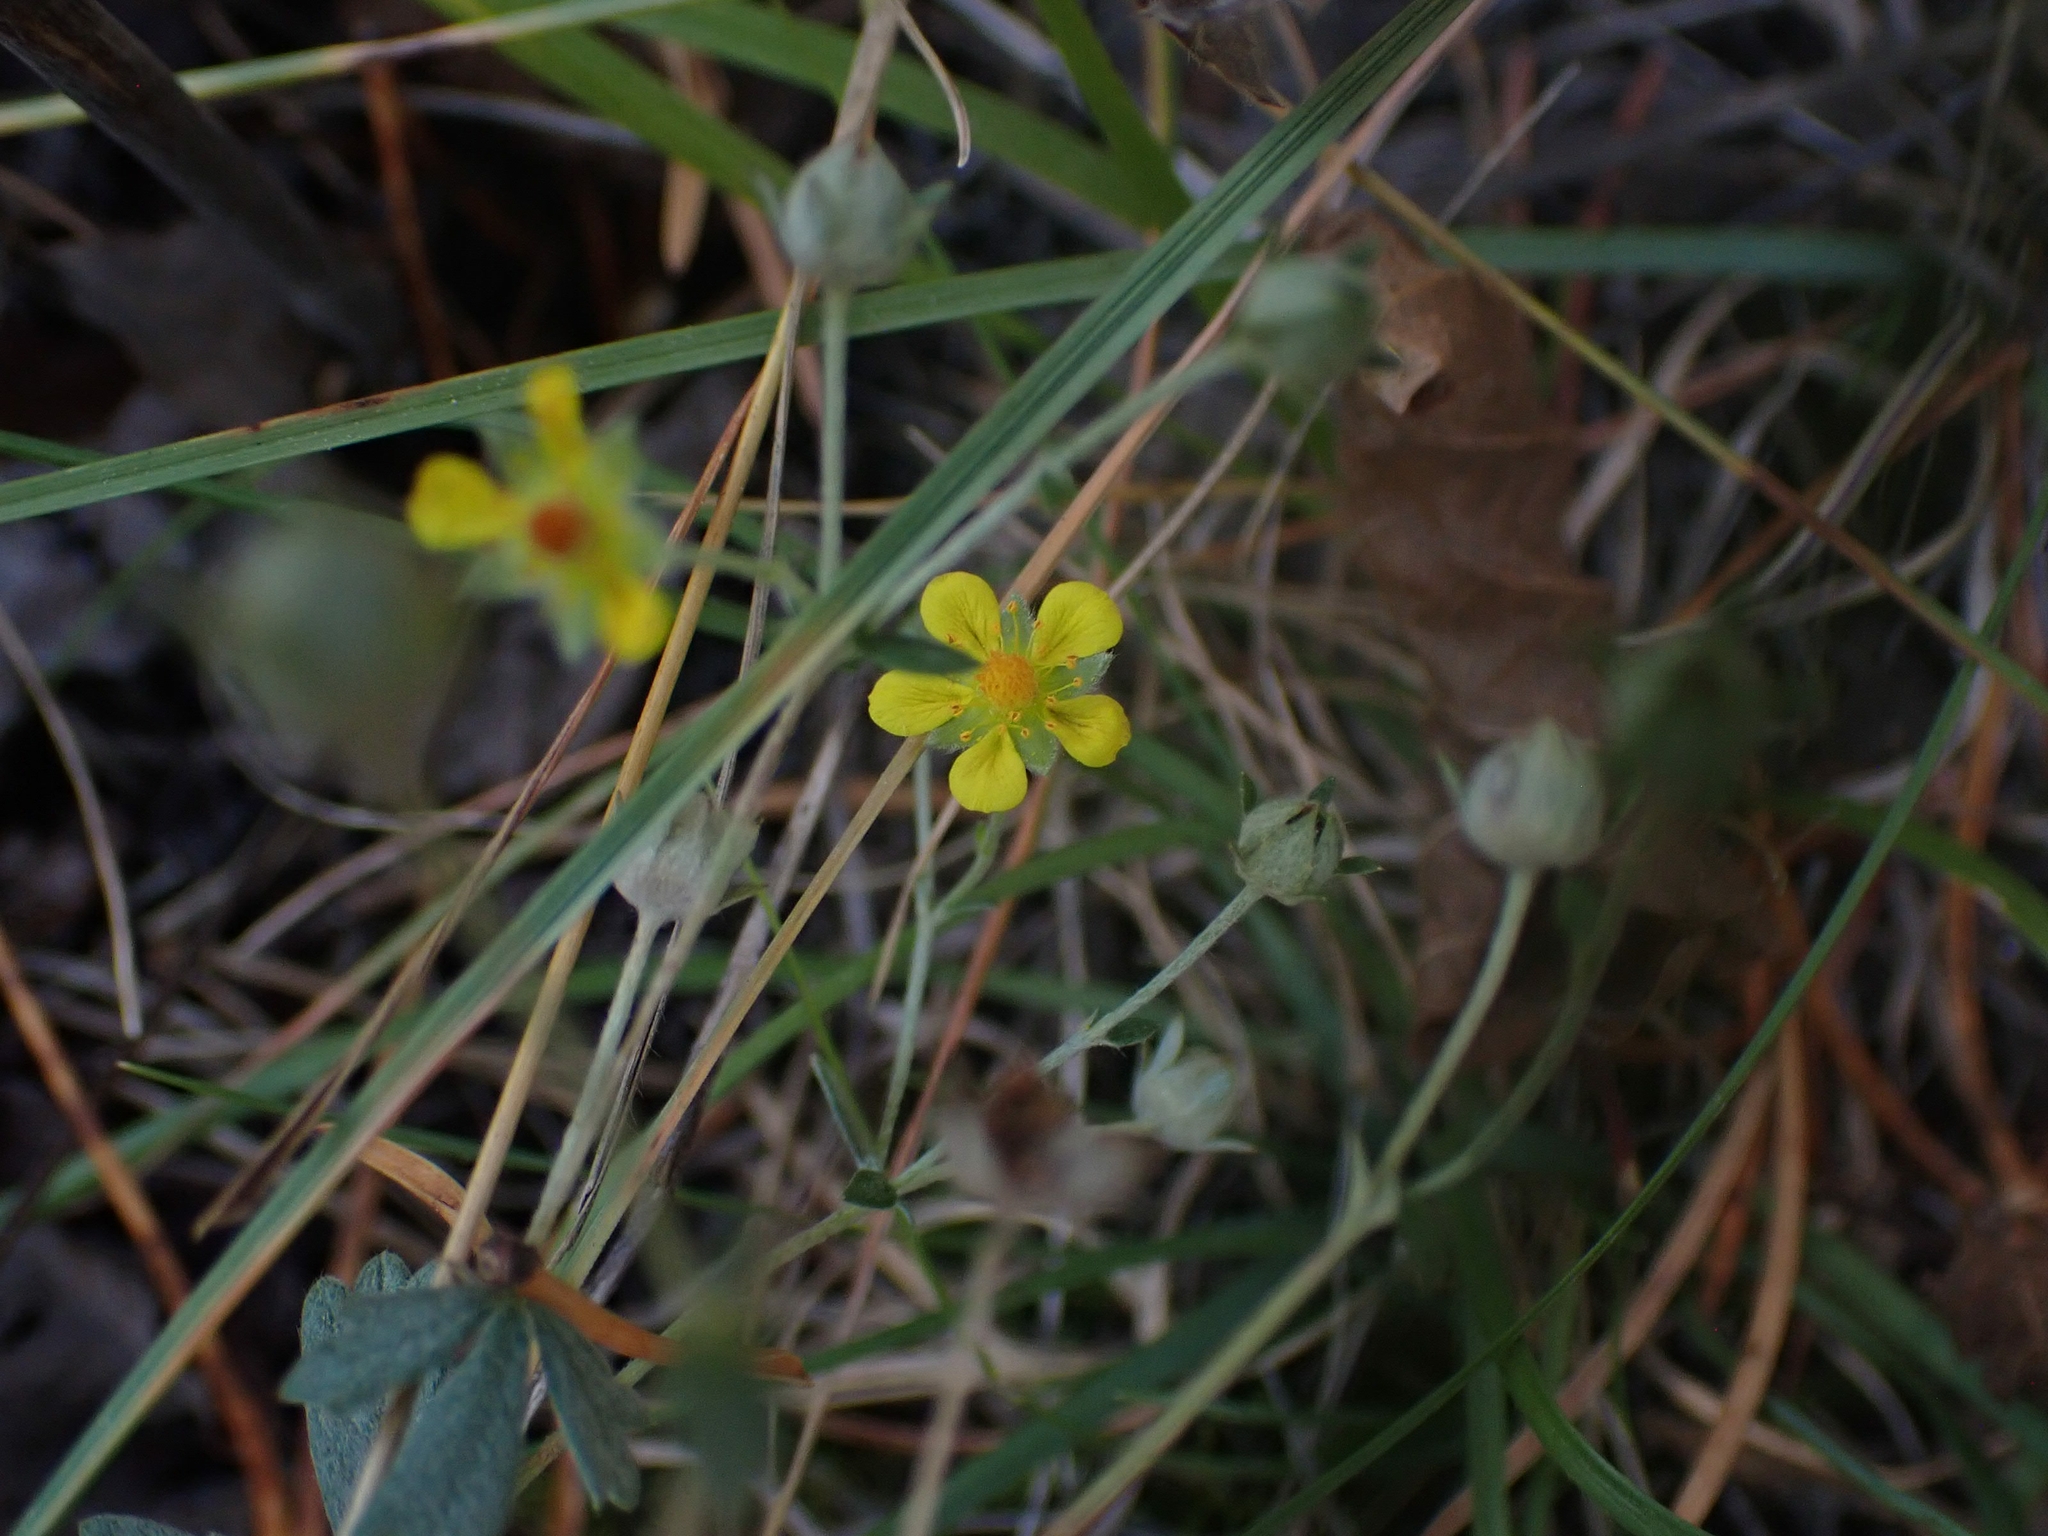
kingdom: Plantae
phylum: Tracheophyta
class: Magnoliopsida
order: Rosales
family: Rosaceae
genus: Potentilla
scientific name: Potentilla argentea
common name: Hoary cinquefoil
